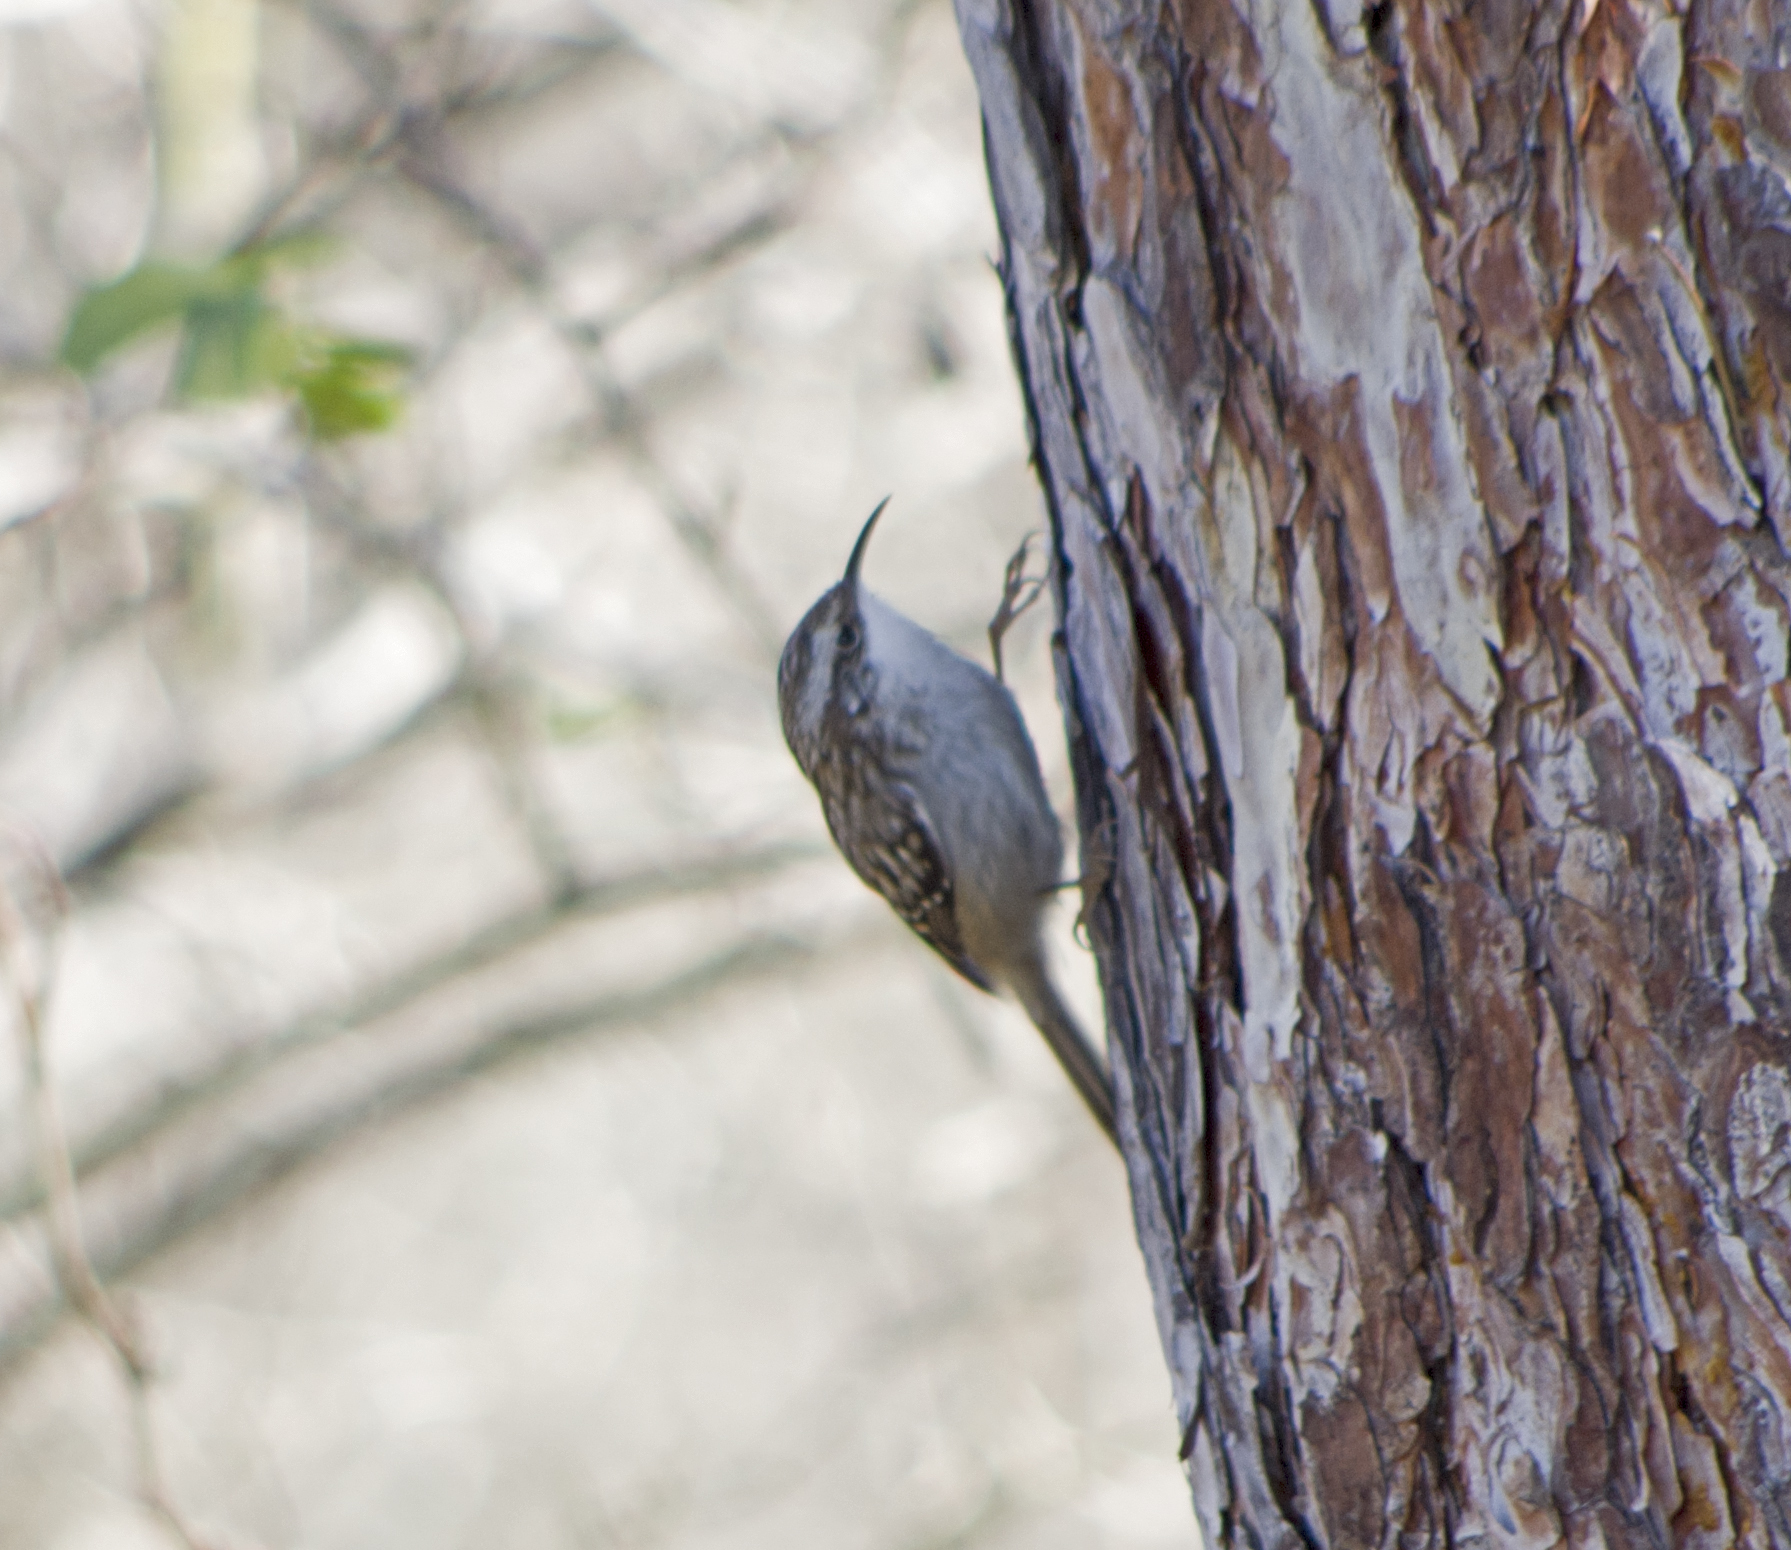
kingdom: Animalia
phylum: Chordata
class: Aves
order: Passeriformes
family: Certhiidae
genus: Certhia
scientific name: Certhia brachydactyla
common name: Short-toed treecreeper
